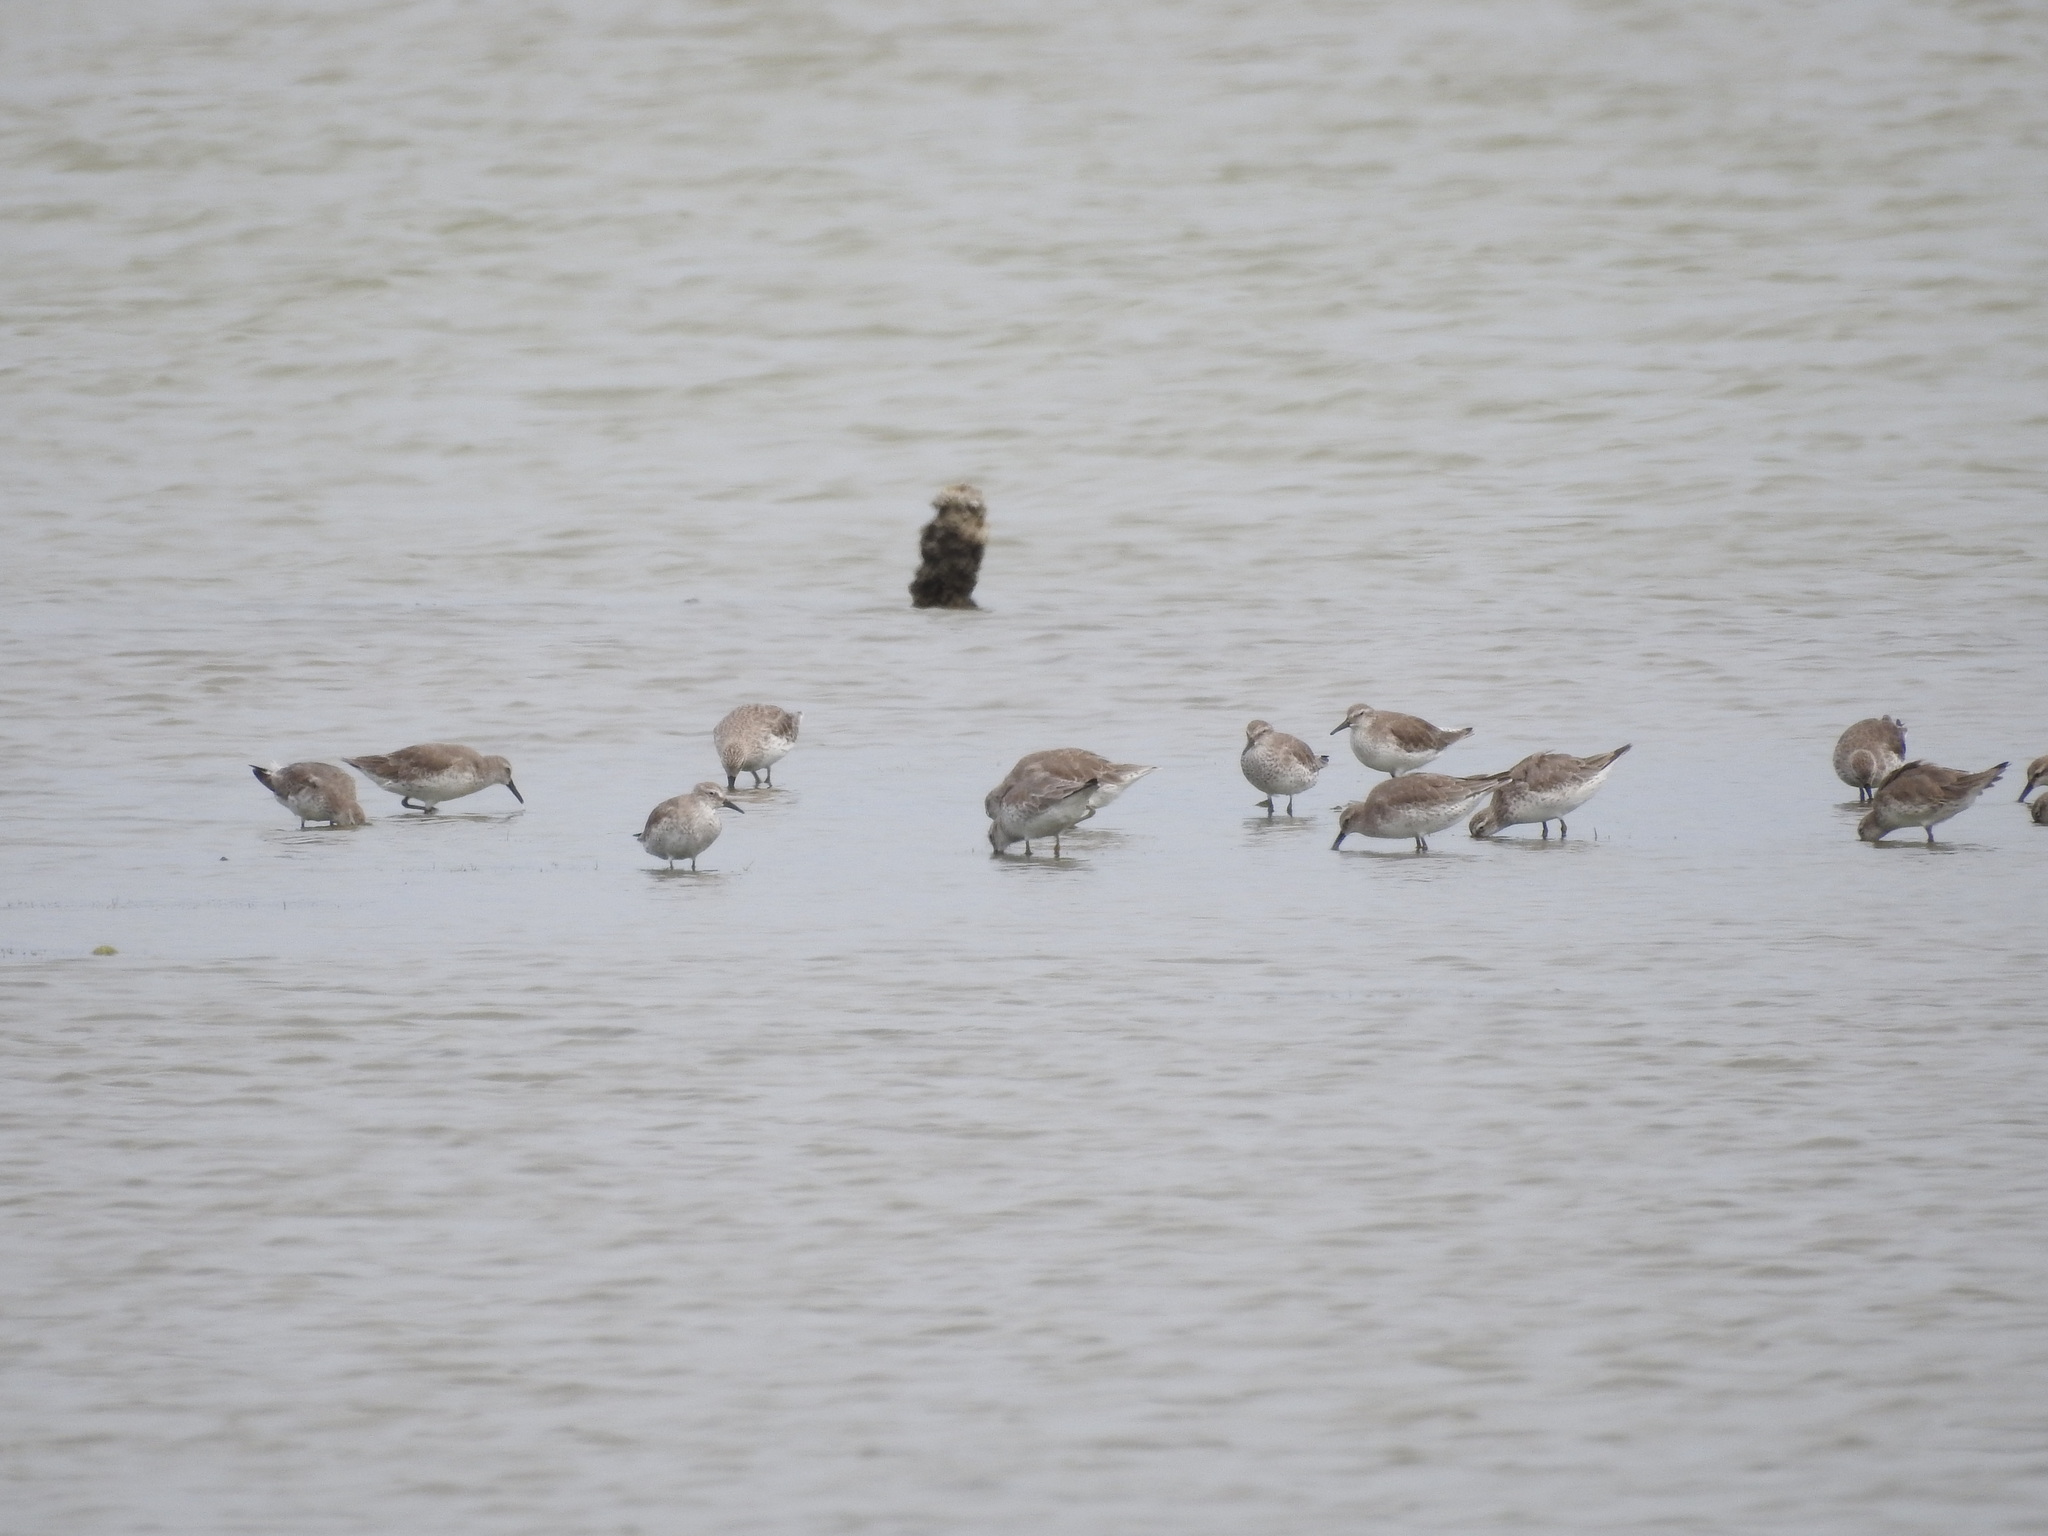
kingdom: Animalia
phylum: Chordata
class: Aves
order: Charadriiformes
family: Scolopacidae
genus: Calidris
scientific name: Calidris canutus
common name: Red knot
